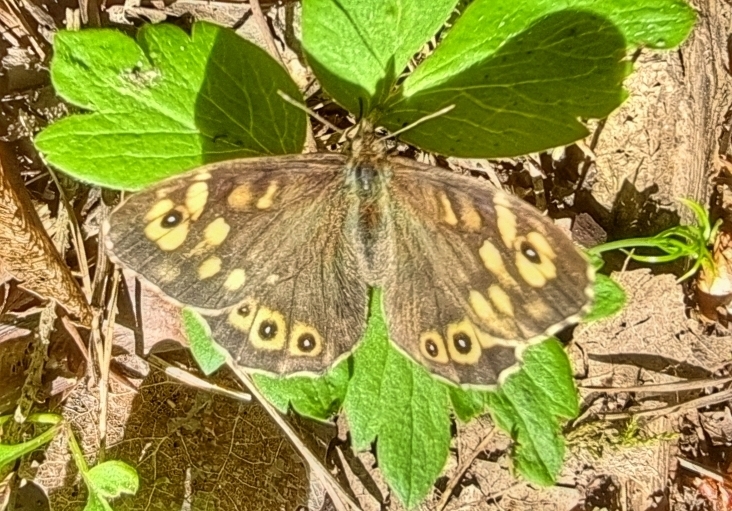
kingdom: Animalia
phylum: Arthropoda
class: Insecta
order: Lepidoptera
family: Nymphalidae
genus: Pararge
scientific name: Pararge aegeria
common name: Speckled wood
